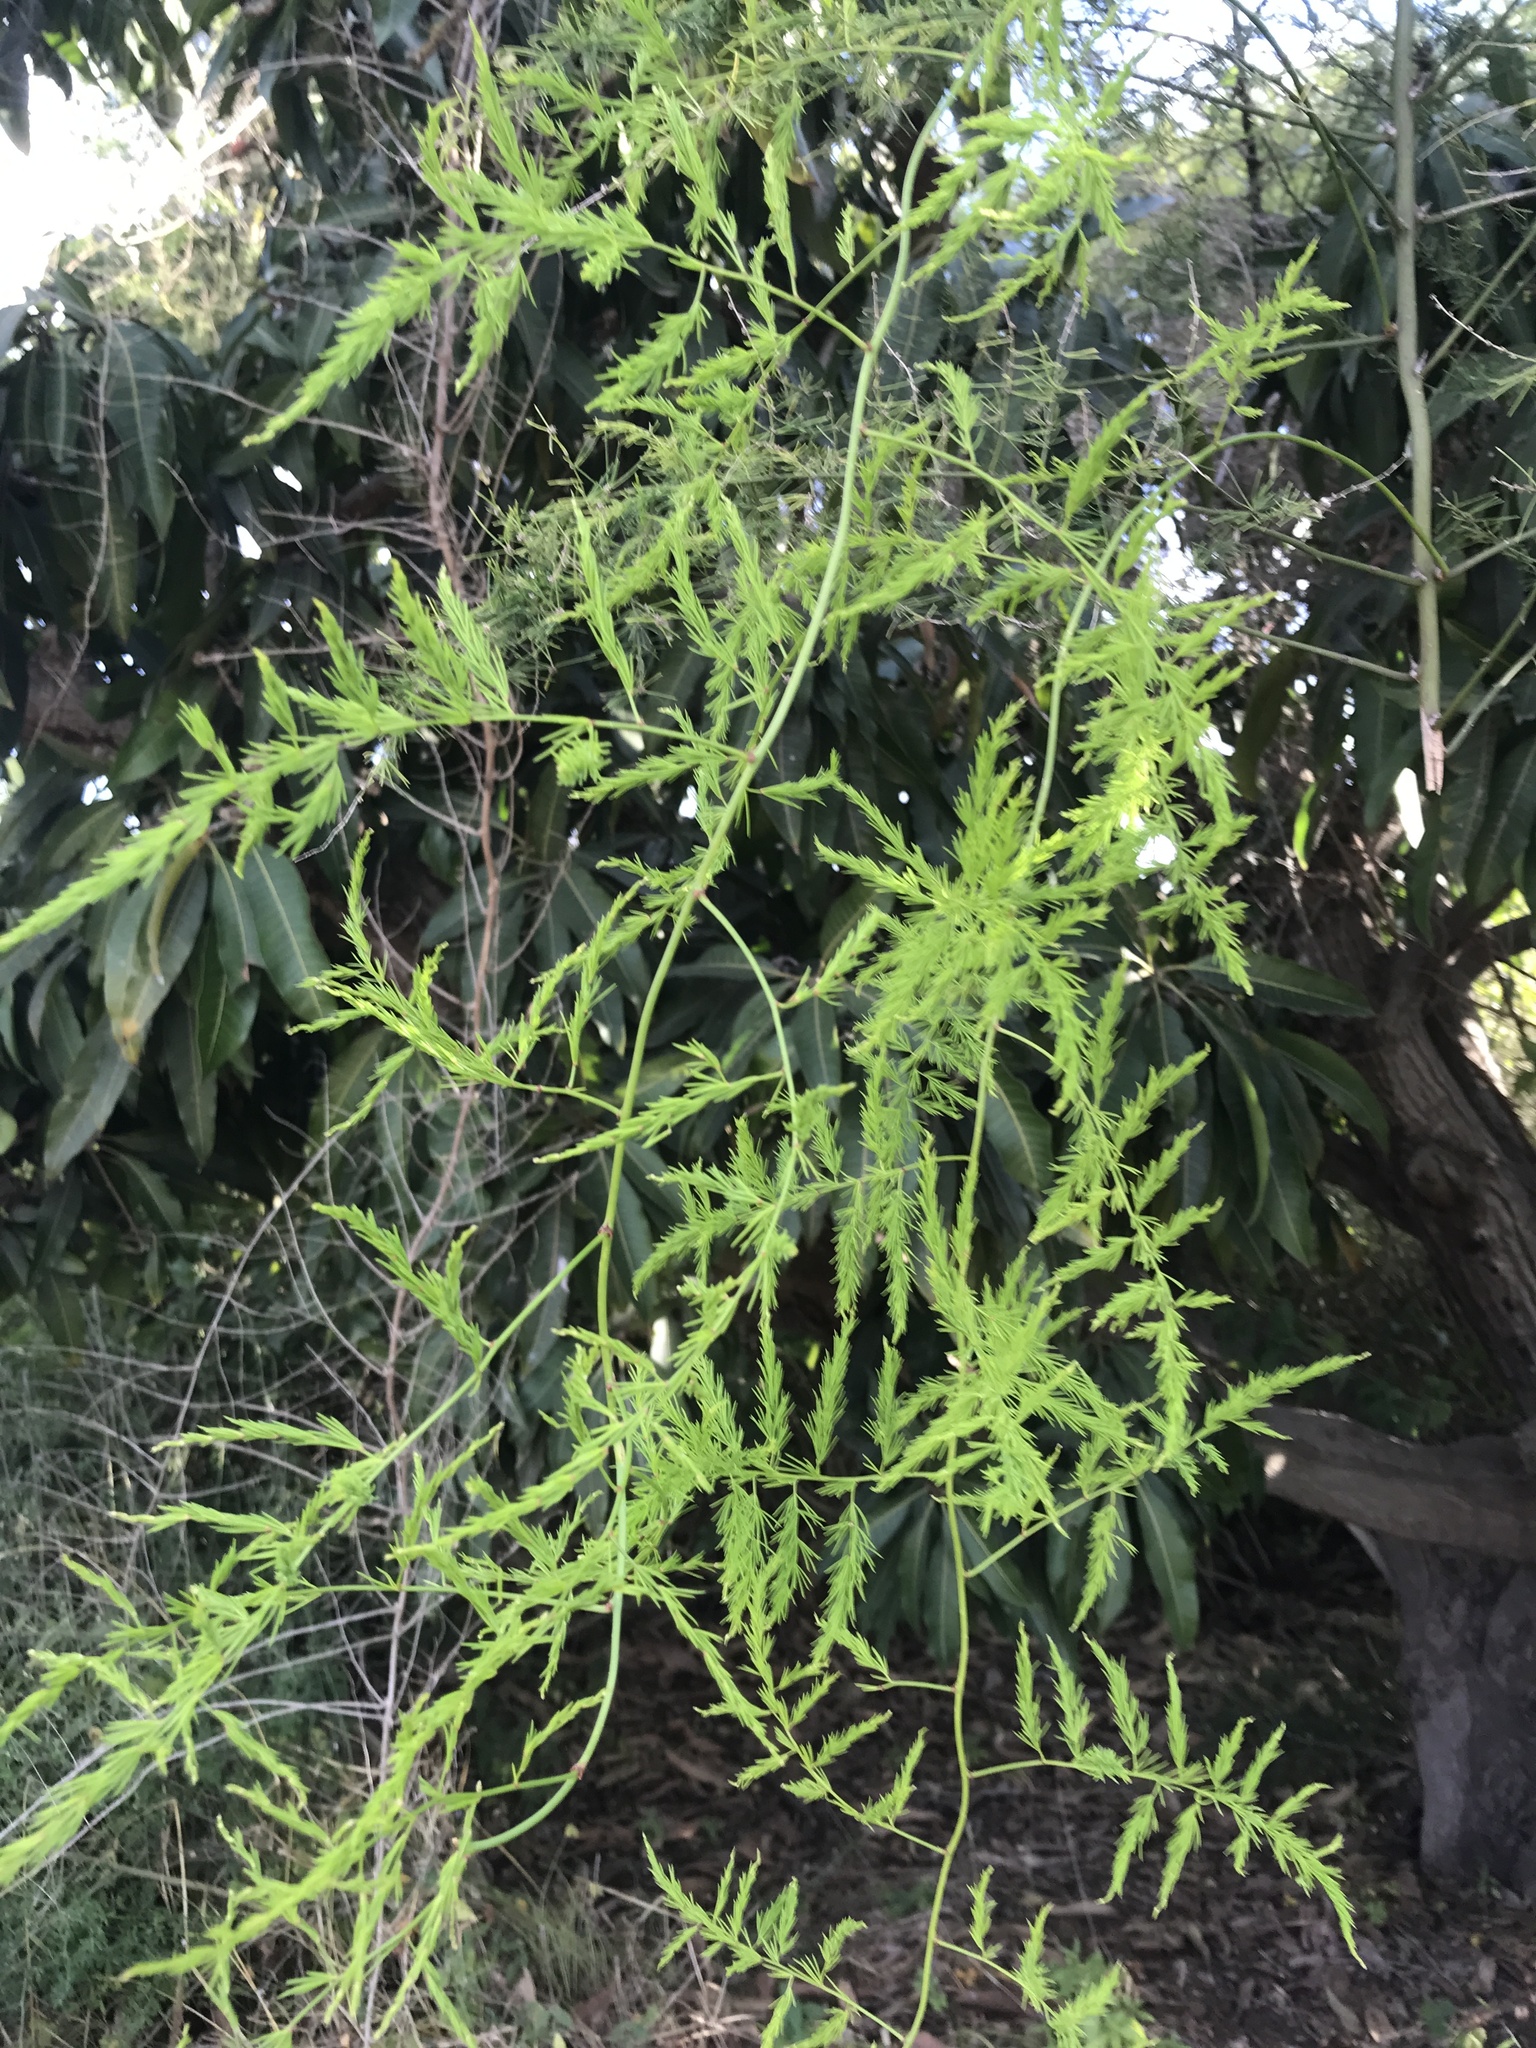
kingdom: Plantae
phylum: Tracheophyta
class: Liliopsida
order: Asparagales
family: Asparagaceae
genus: Asparagus
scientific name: Asparagus setaceus
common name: Common asparagus fern
